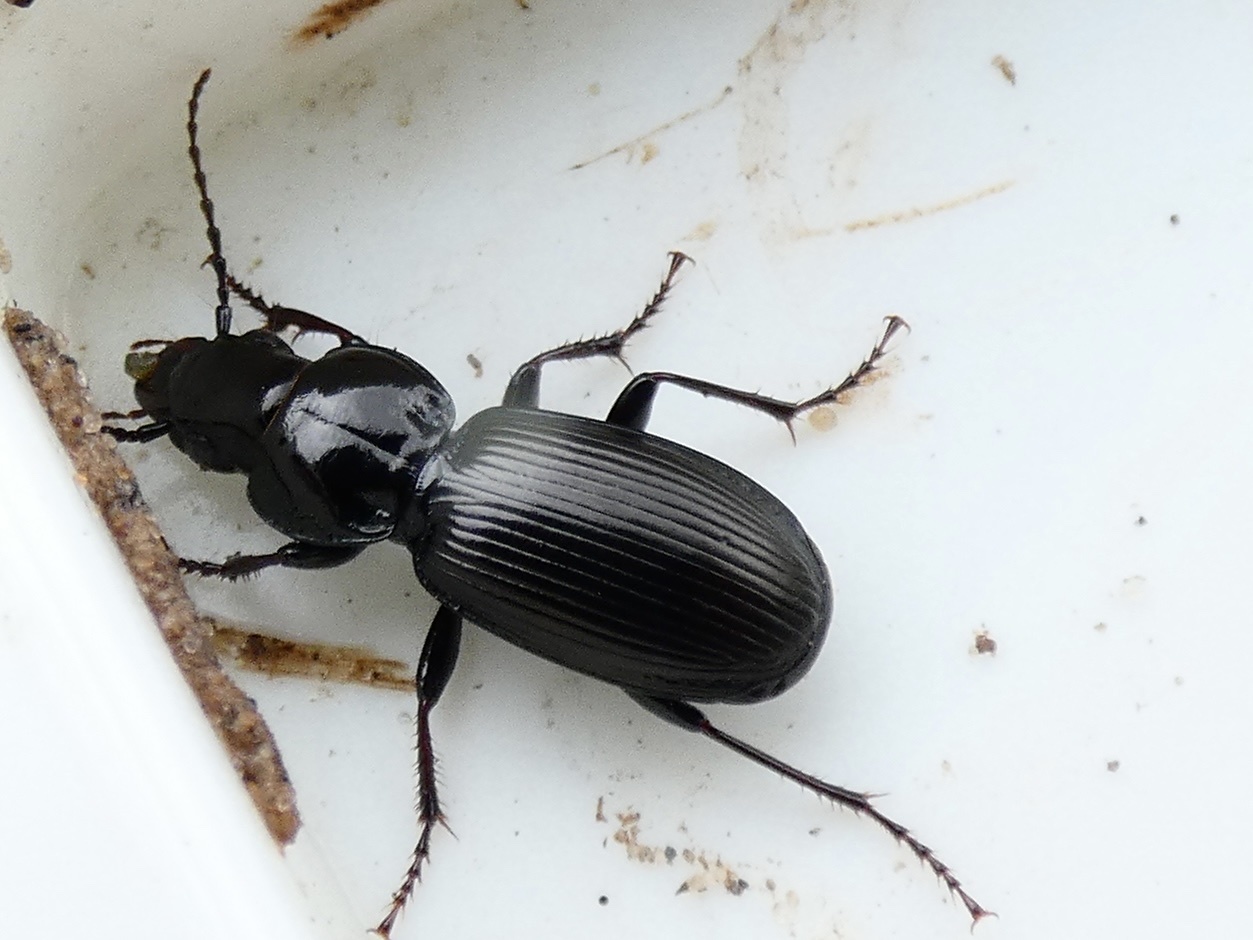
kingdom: Animalia
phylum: Arthropoda
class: Insecta
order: Coleoptera
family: Carabidae
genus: Pterostichus
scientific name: Pterostichus madidus
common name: Black clock
